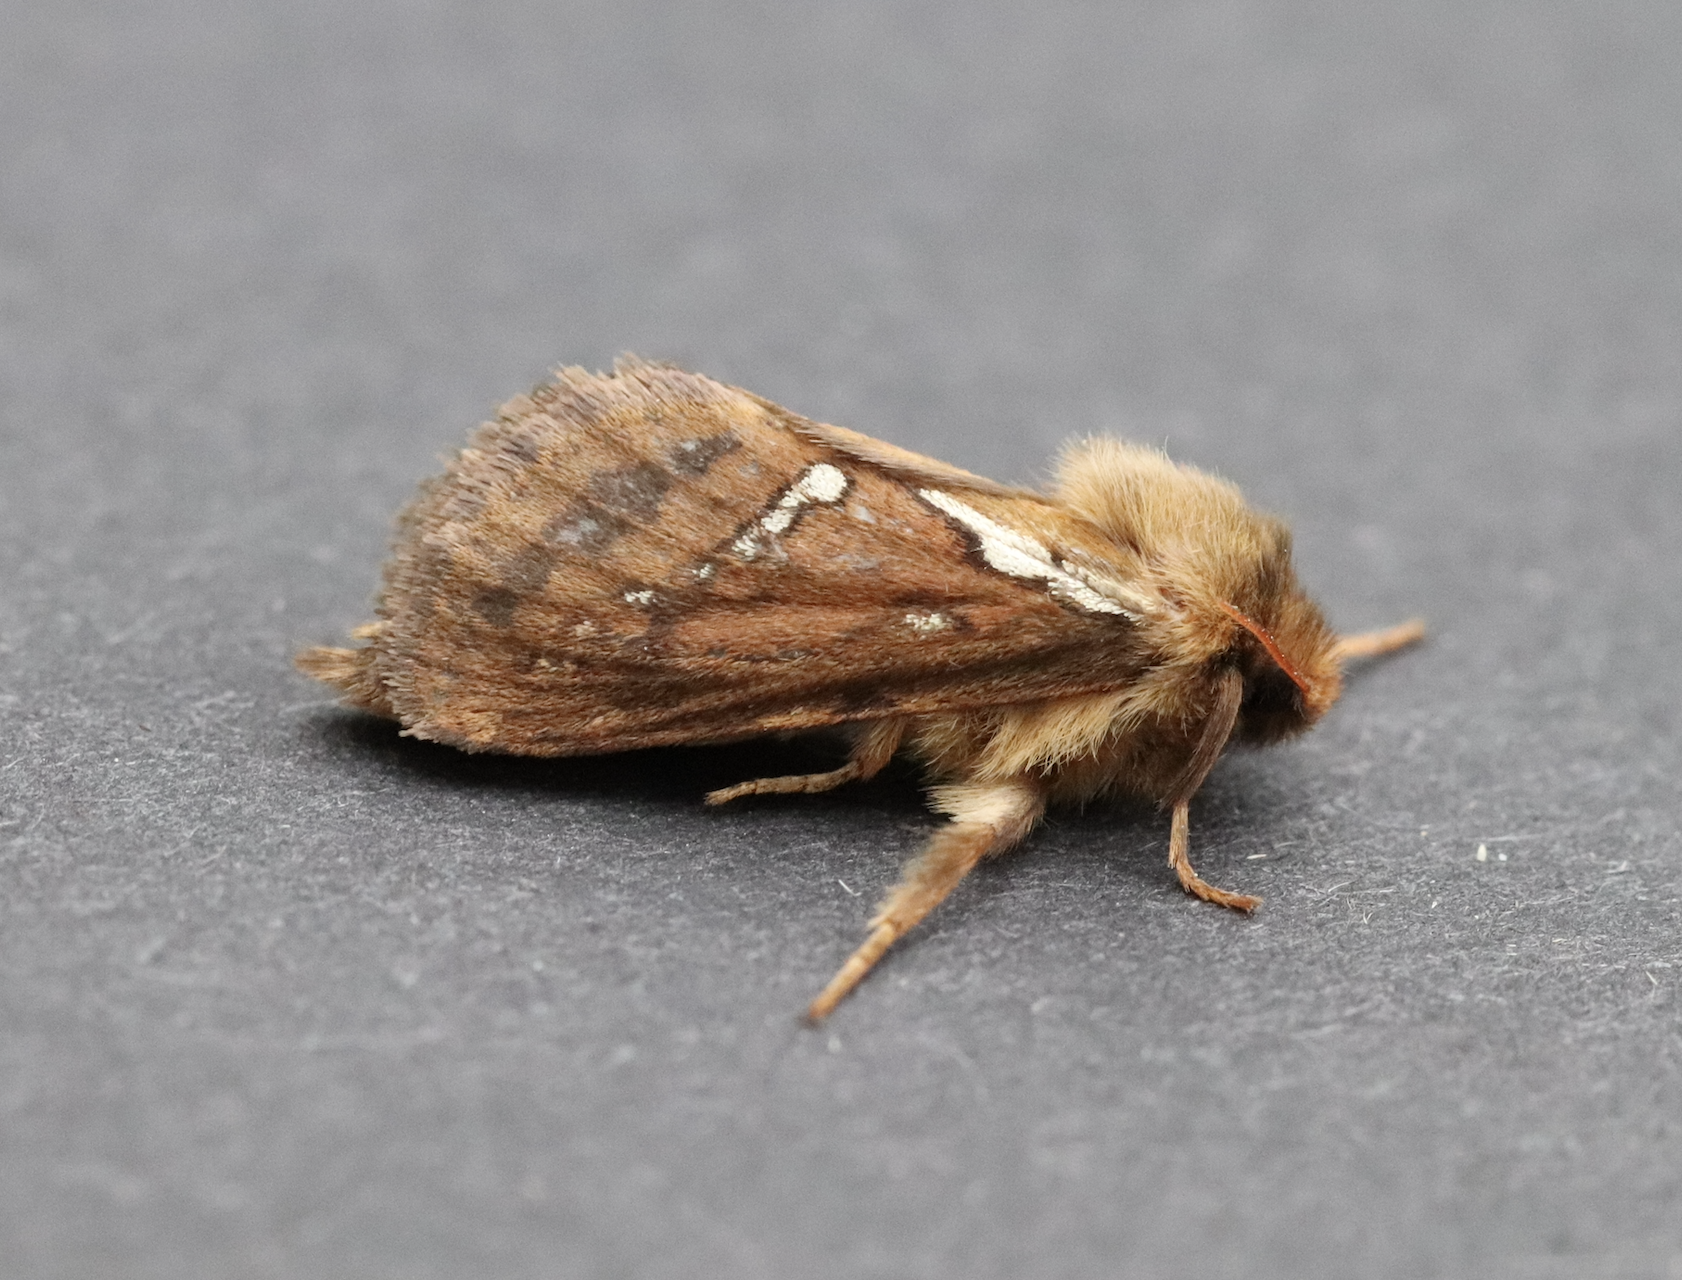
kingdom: Animalia
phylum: Arthropoda
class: Insecta
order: Lepidoptera
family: Hepialidae
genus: Korscheltellus
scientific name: Korscheltellus lupulina
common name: Common swift
